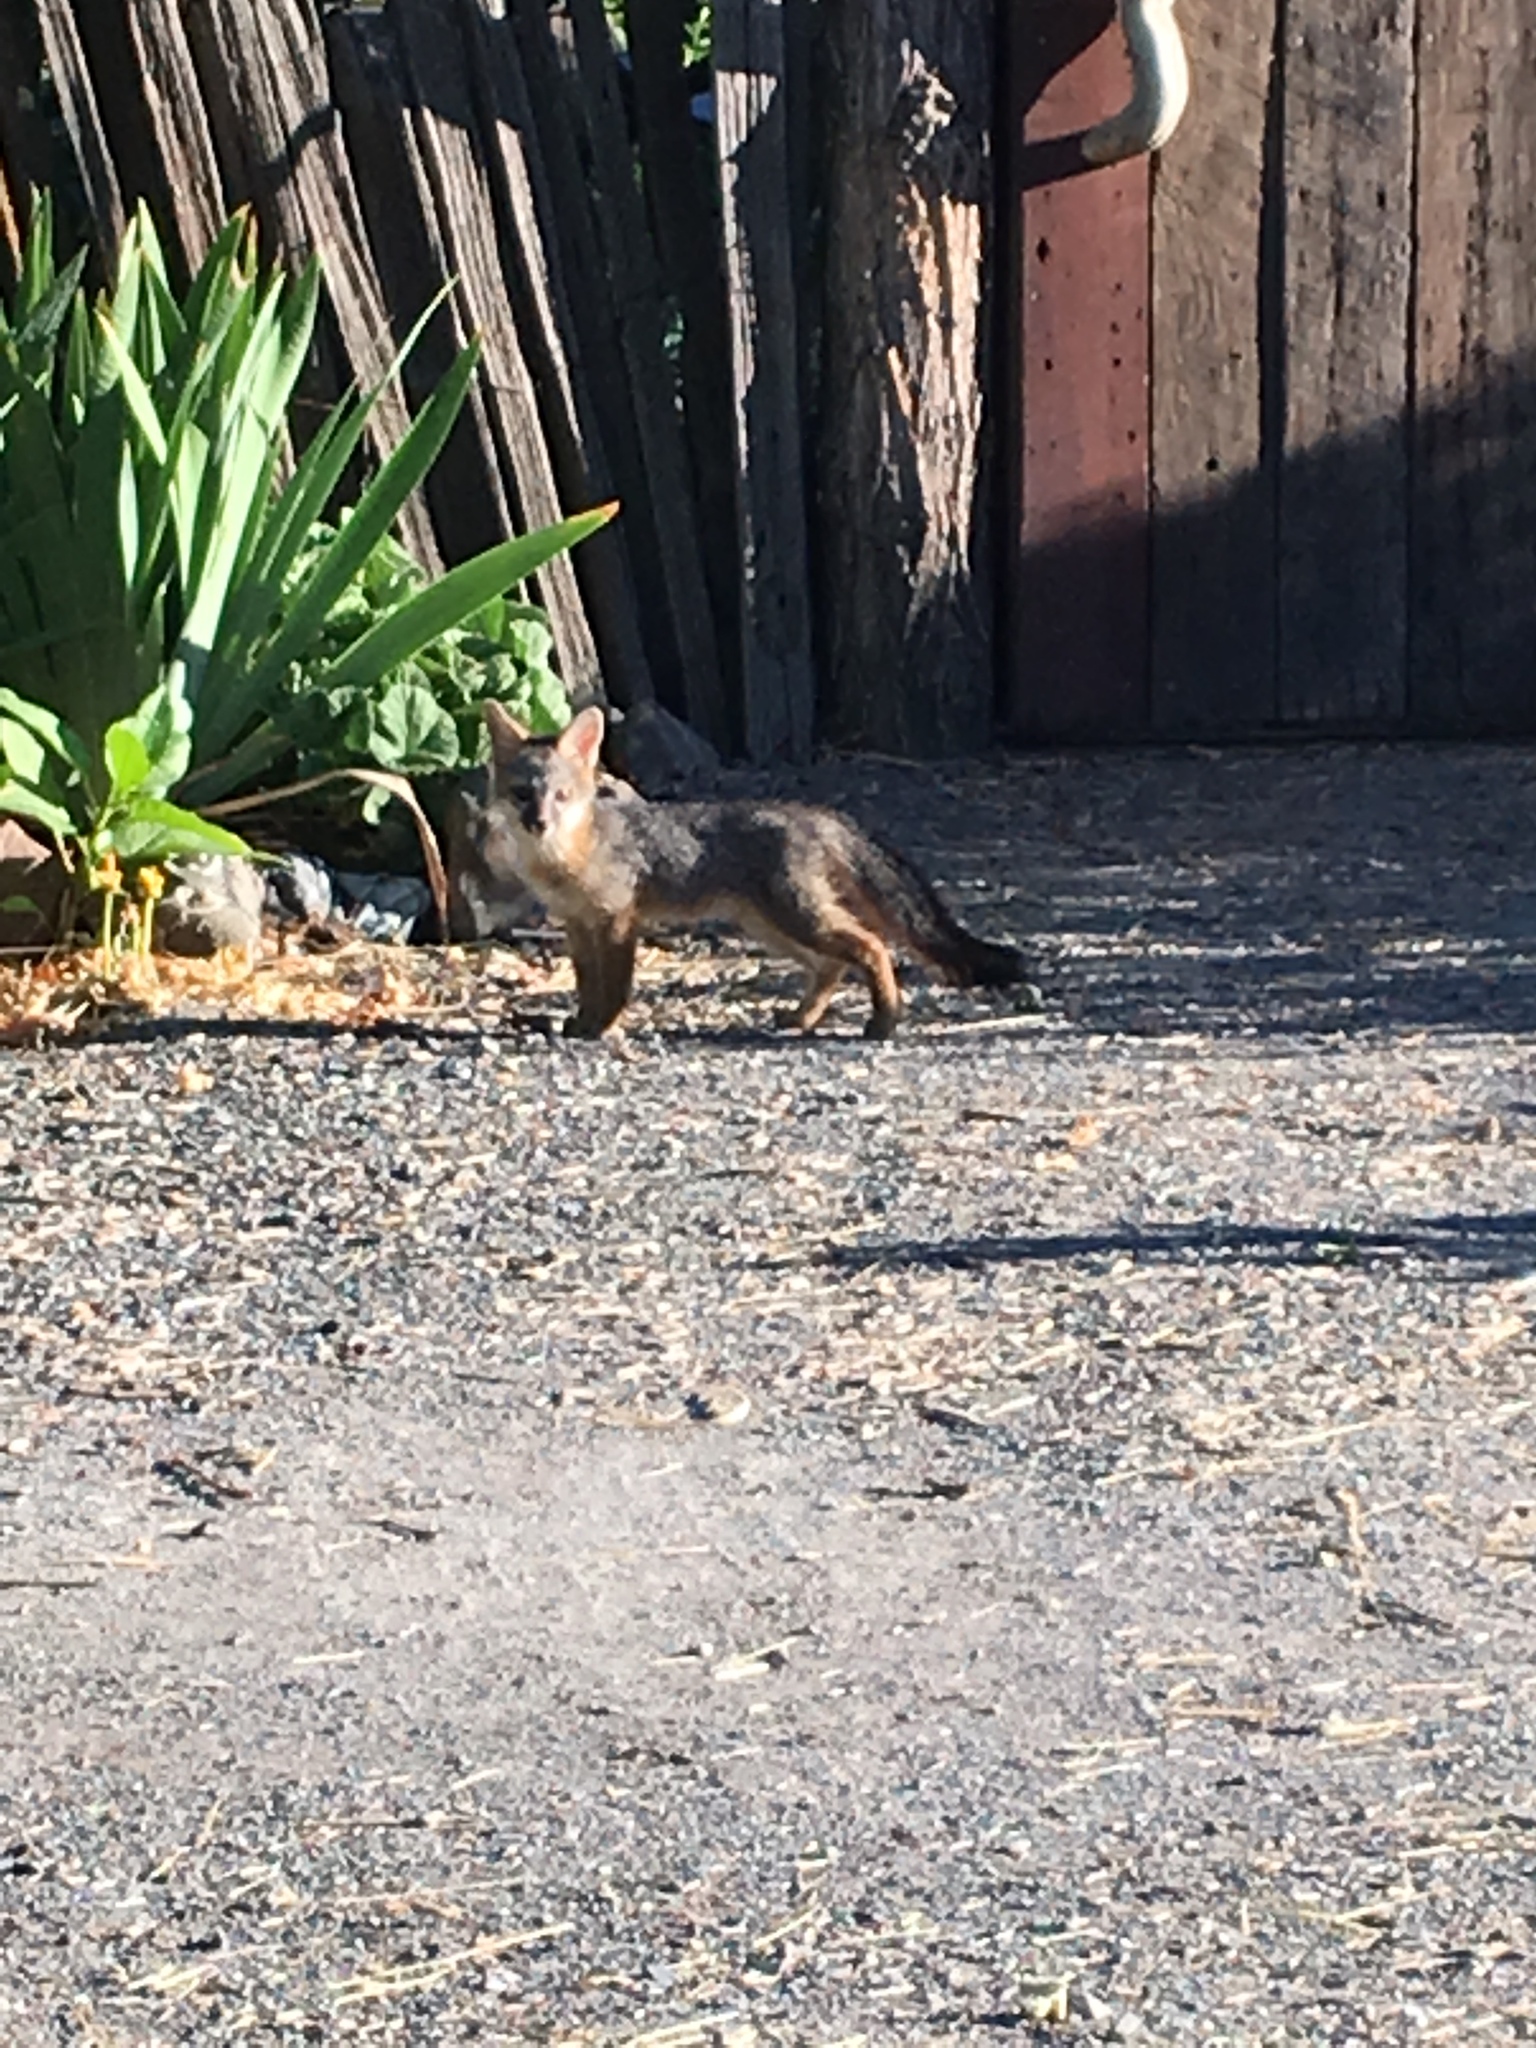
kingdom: Animalia
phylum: Chordata
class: Mammalia
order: Carnivora
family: Canidae
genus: Urocyon
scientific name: Urocyon cinereoargenteus
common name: Gray fox
